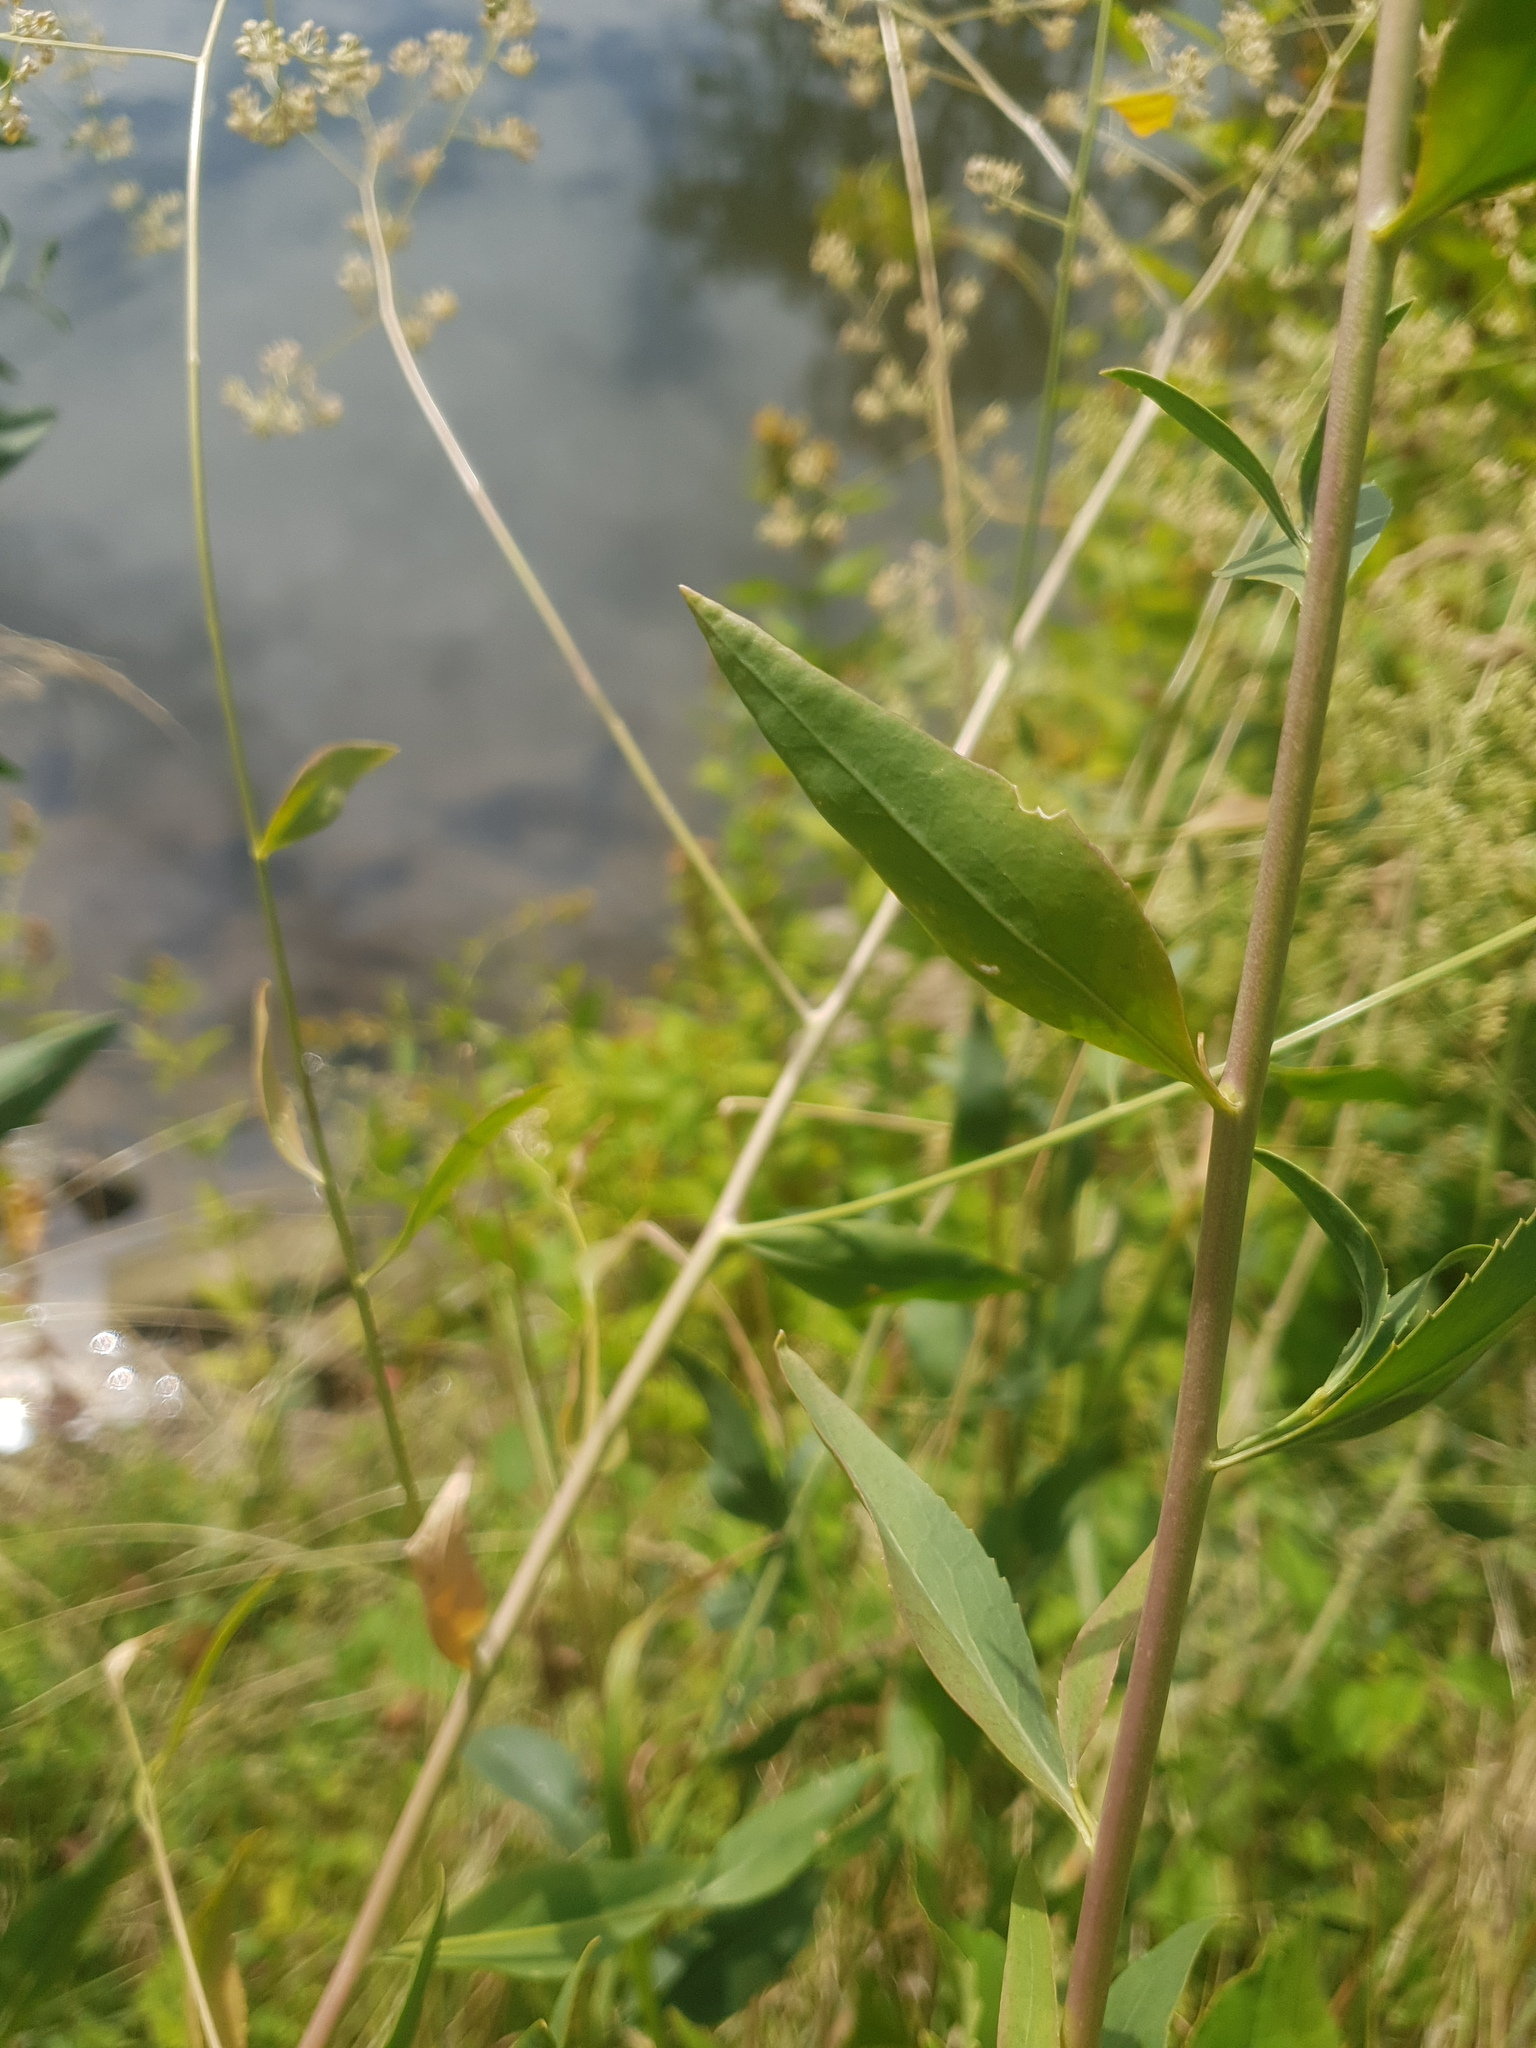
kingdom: Plantae
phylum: Tracheophyta
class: Magnoliopsida
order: Brassicales
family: Brassicaceae
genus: Lepidium
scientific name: Lepidium latifolium
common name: Dittander
